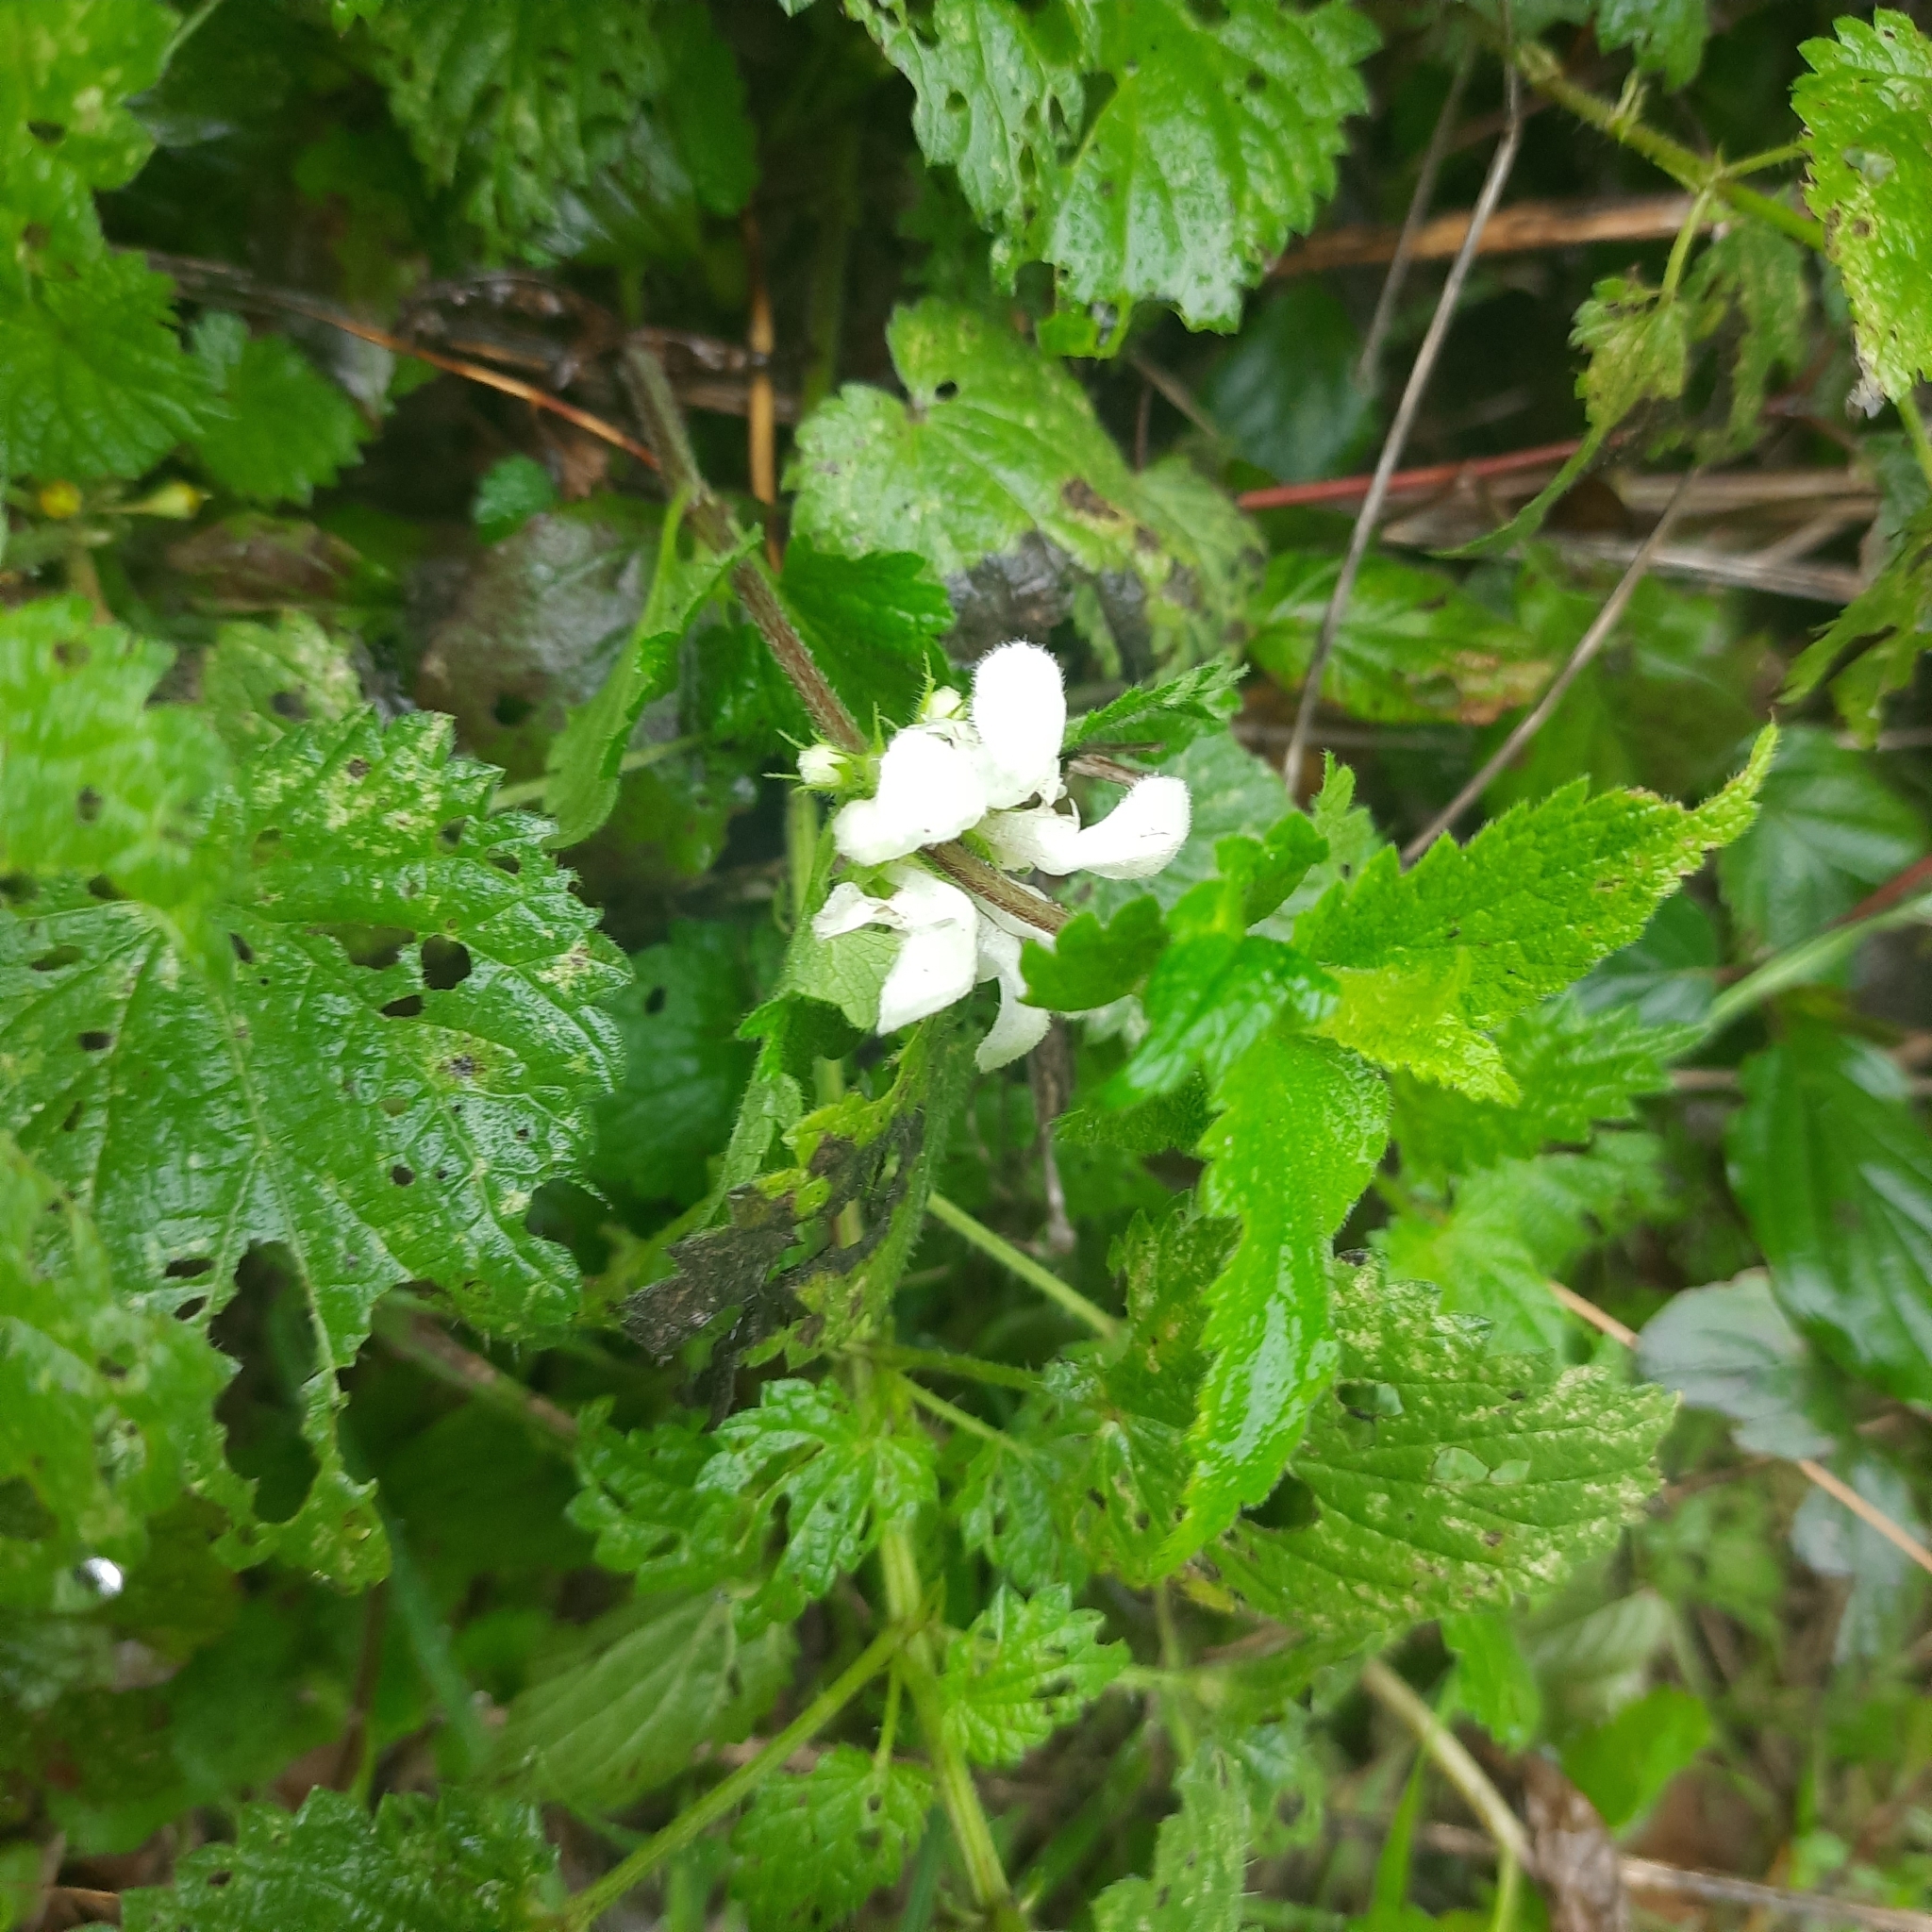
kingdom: Plantae
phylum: Tracheophyta
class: Magnoliopsida
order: Lamiales
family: Lamiaceae
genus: Lamium
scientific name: Lamium album
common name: White dead-nettle
